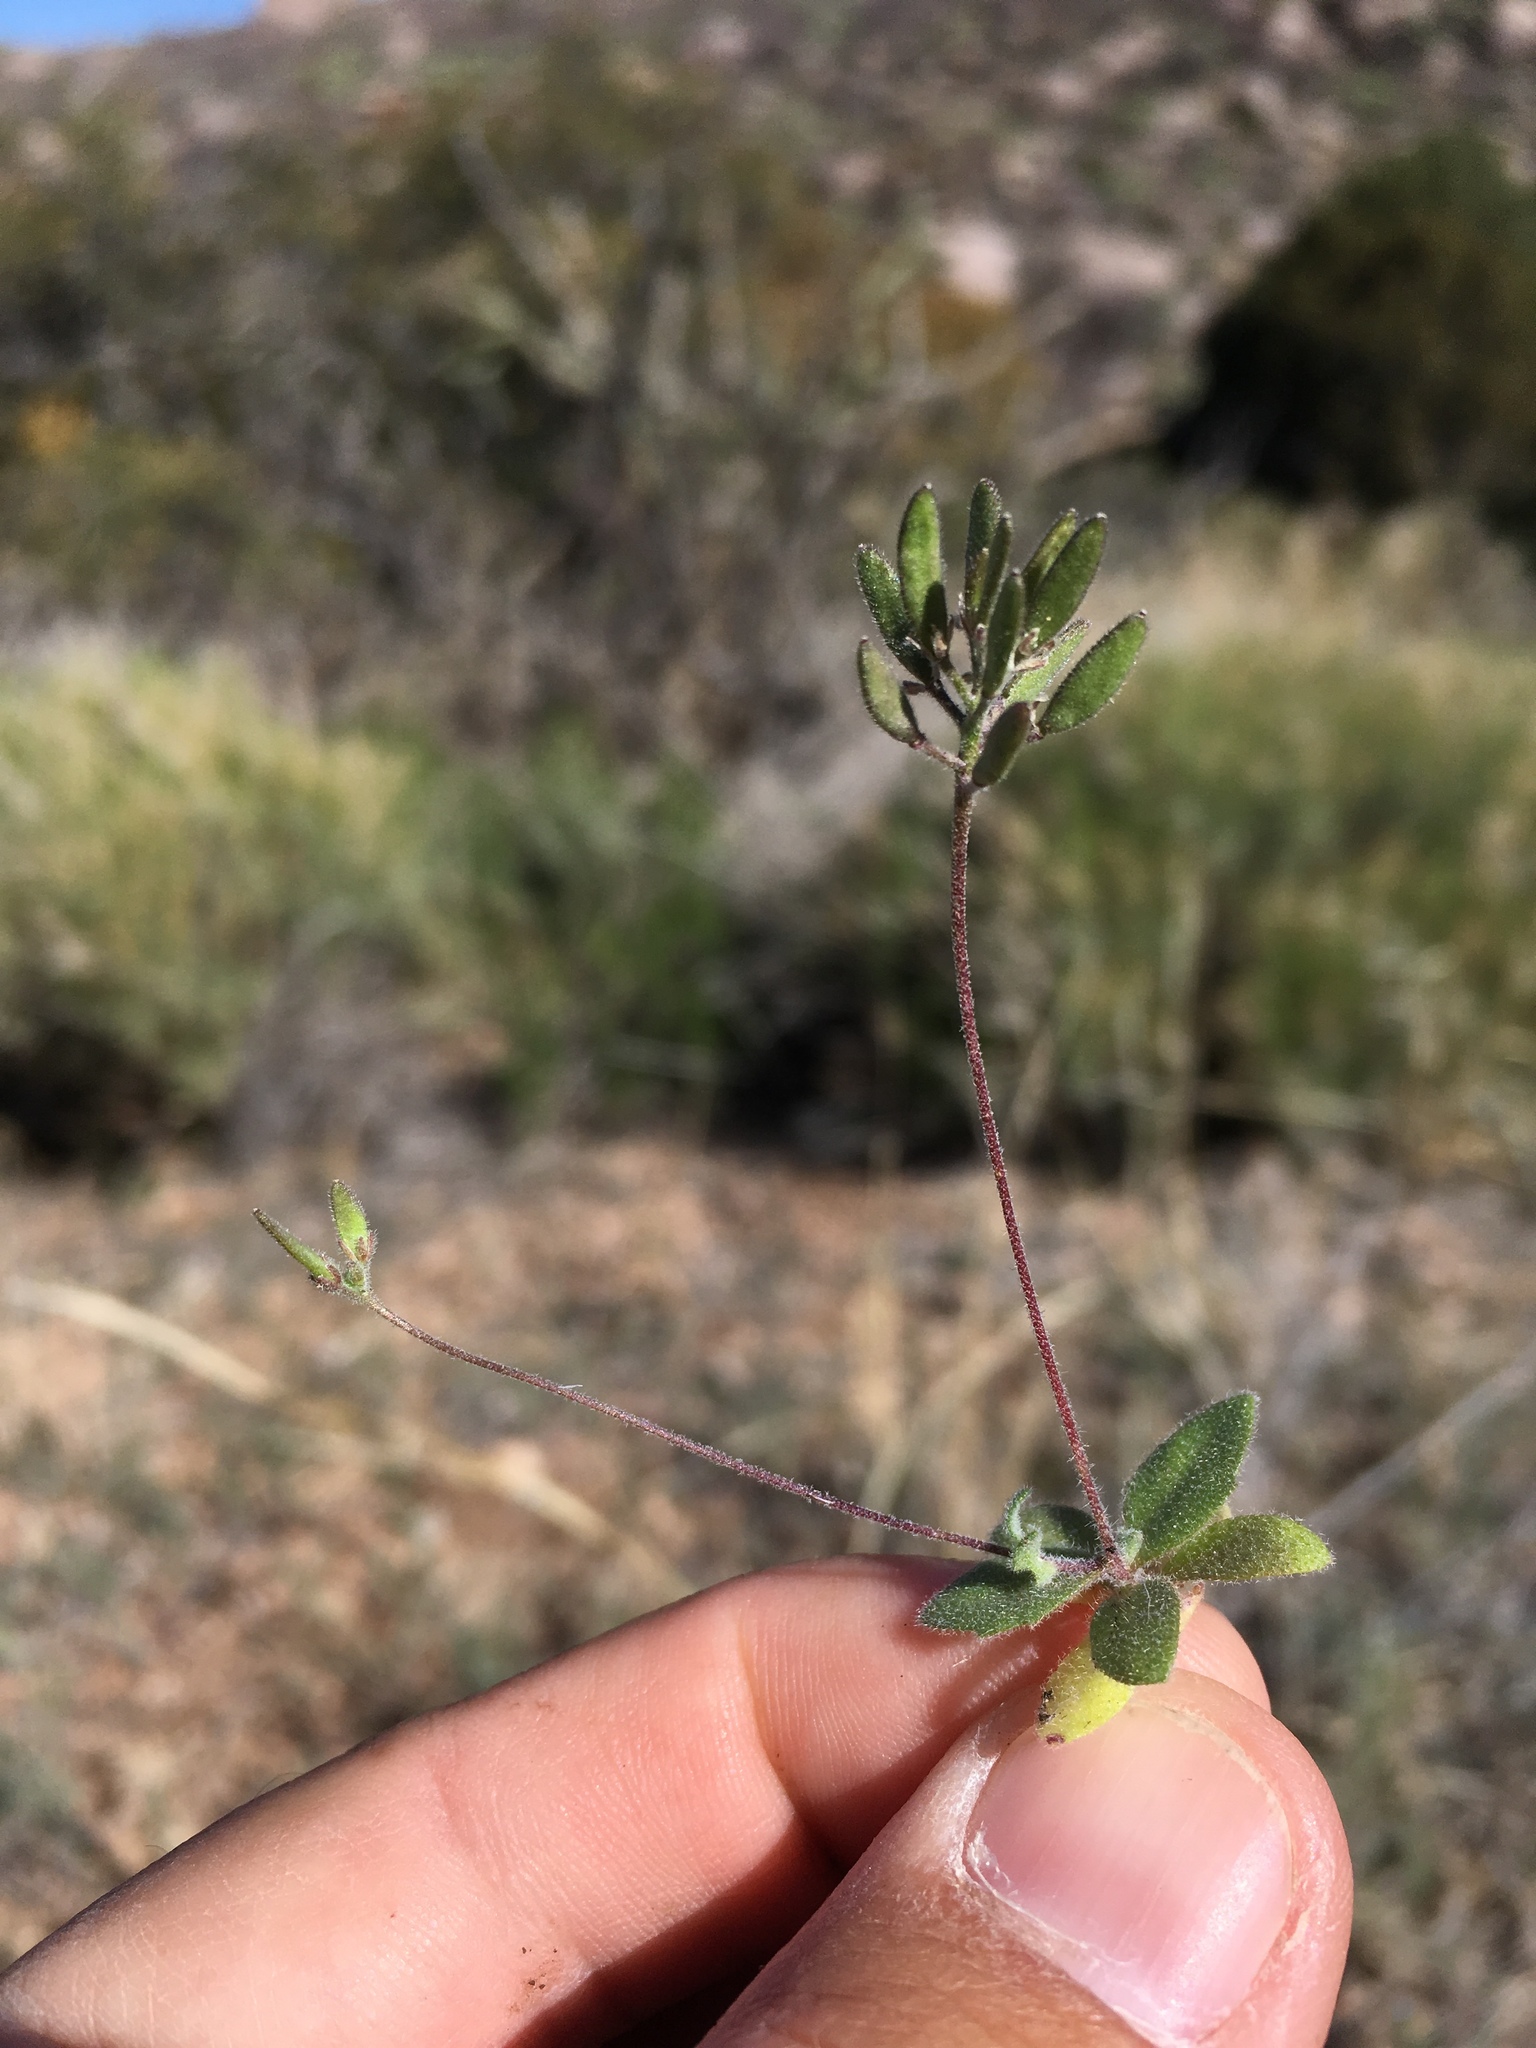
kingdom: Plantae
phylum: Tracheophyta
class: Magnoliopsida
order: Brassicales
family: Brassicaceae
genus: Tomostima
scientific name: Tomostima cuneifolia
